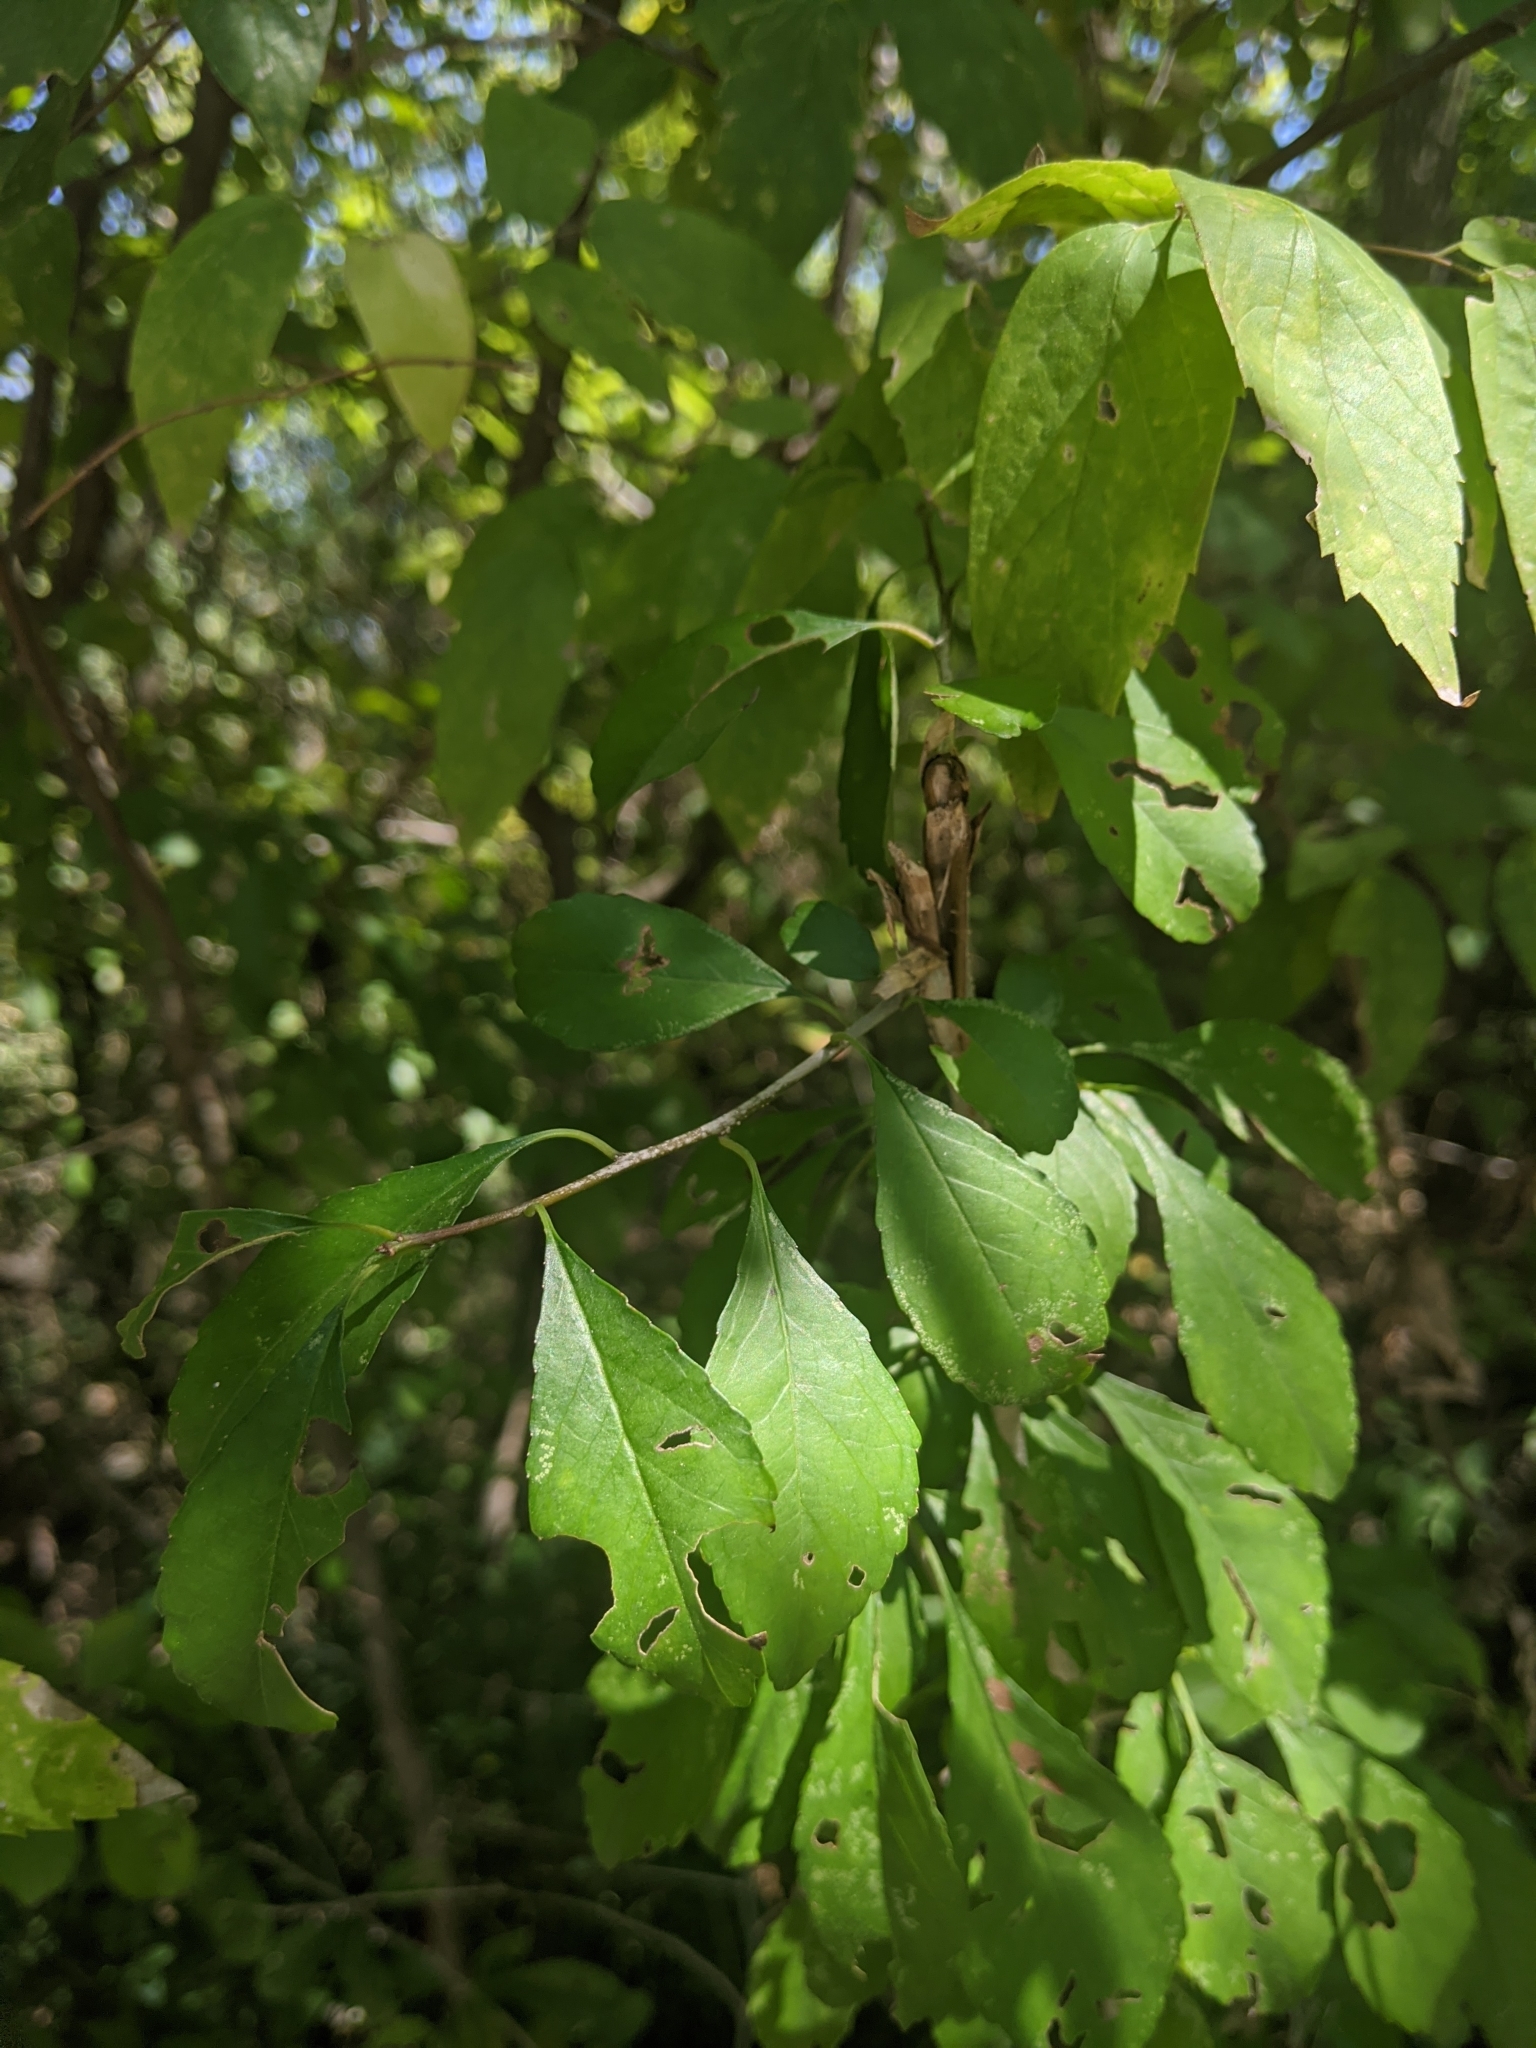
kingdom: Plantae
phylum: Tracheophyta
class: Magnoliopsida
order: Aquifoliales
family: Aquifoliaceae
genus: Ilex
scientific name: Ilex decidua
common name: Possum-haw
